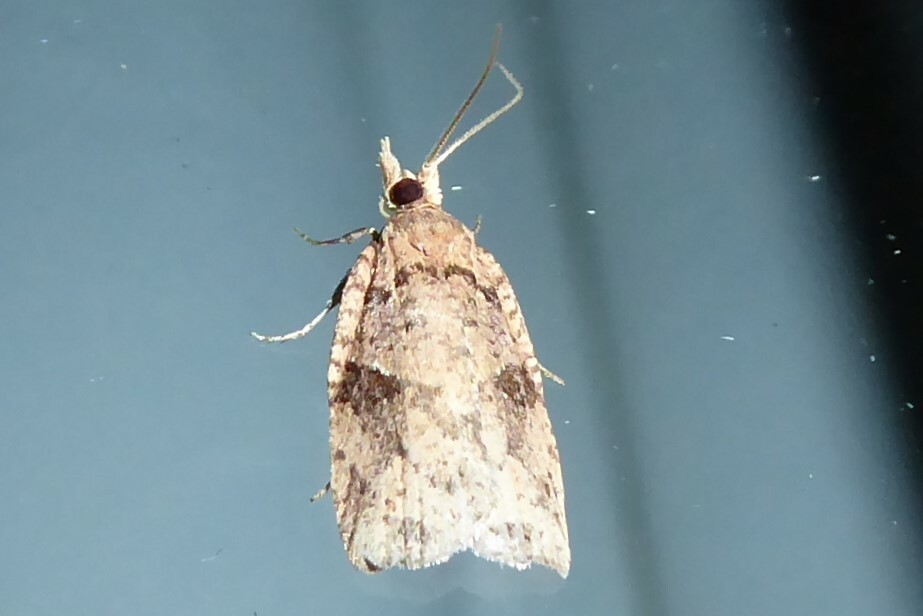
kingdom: Animalia
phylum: Arthropoda
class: Insecta
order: Lepidoptera
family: Tortricidae
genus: Ctenopseustis
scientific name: Ctenopseustis obliquana
